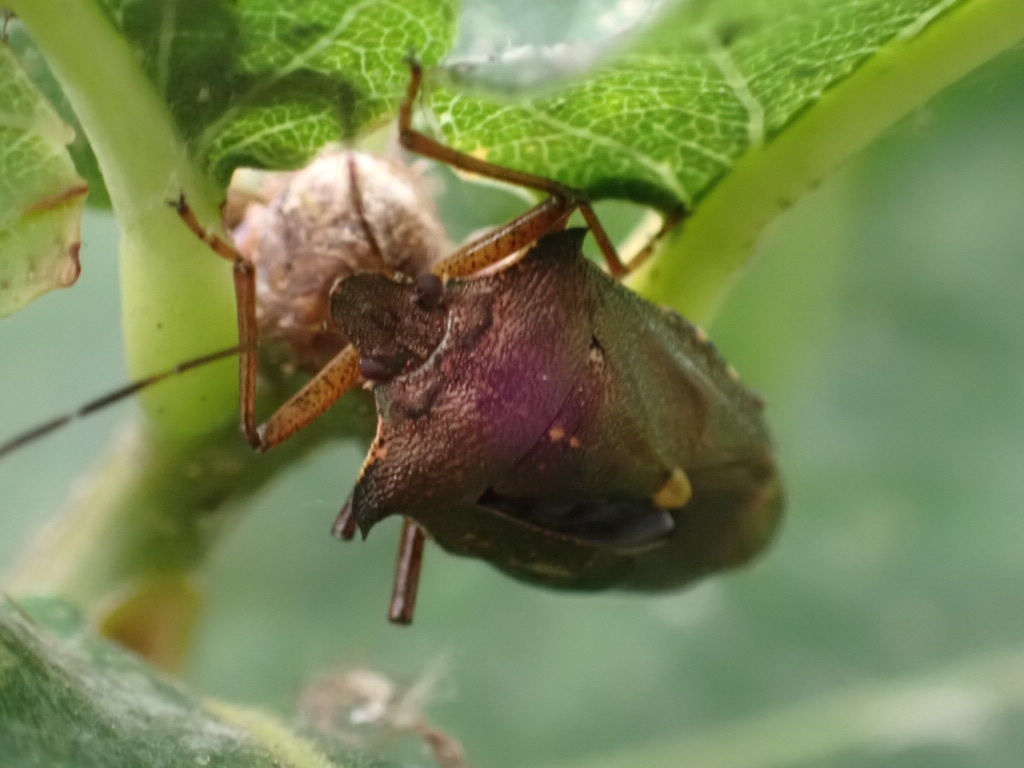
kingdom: Animalia
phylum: Arthropoda
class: Insecta
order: Hemiptera
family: Pentatomidae
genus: Pentatoma
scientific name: Pentatoma rufipes
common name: Forest bug
